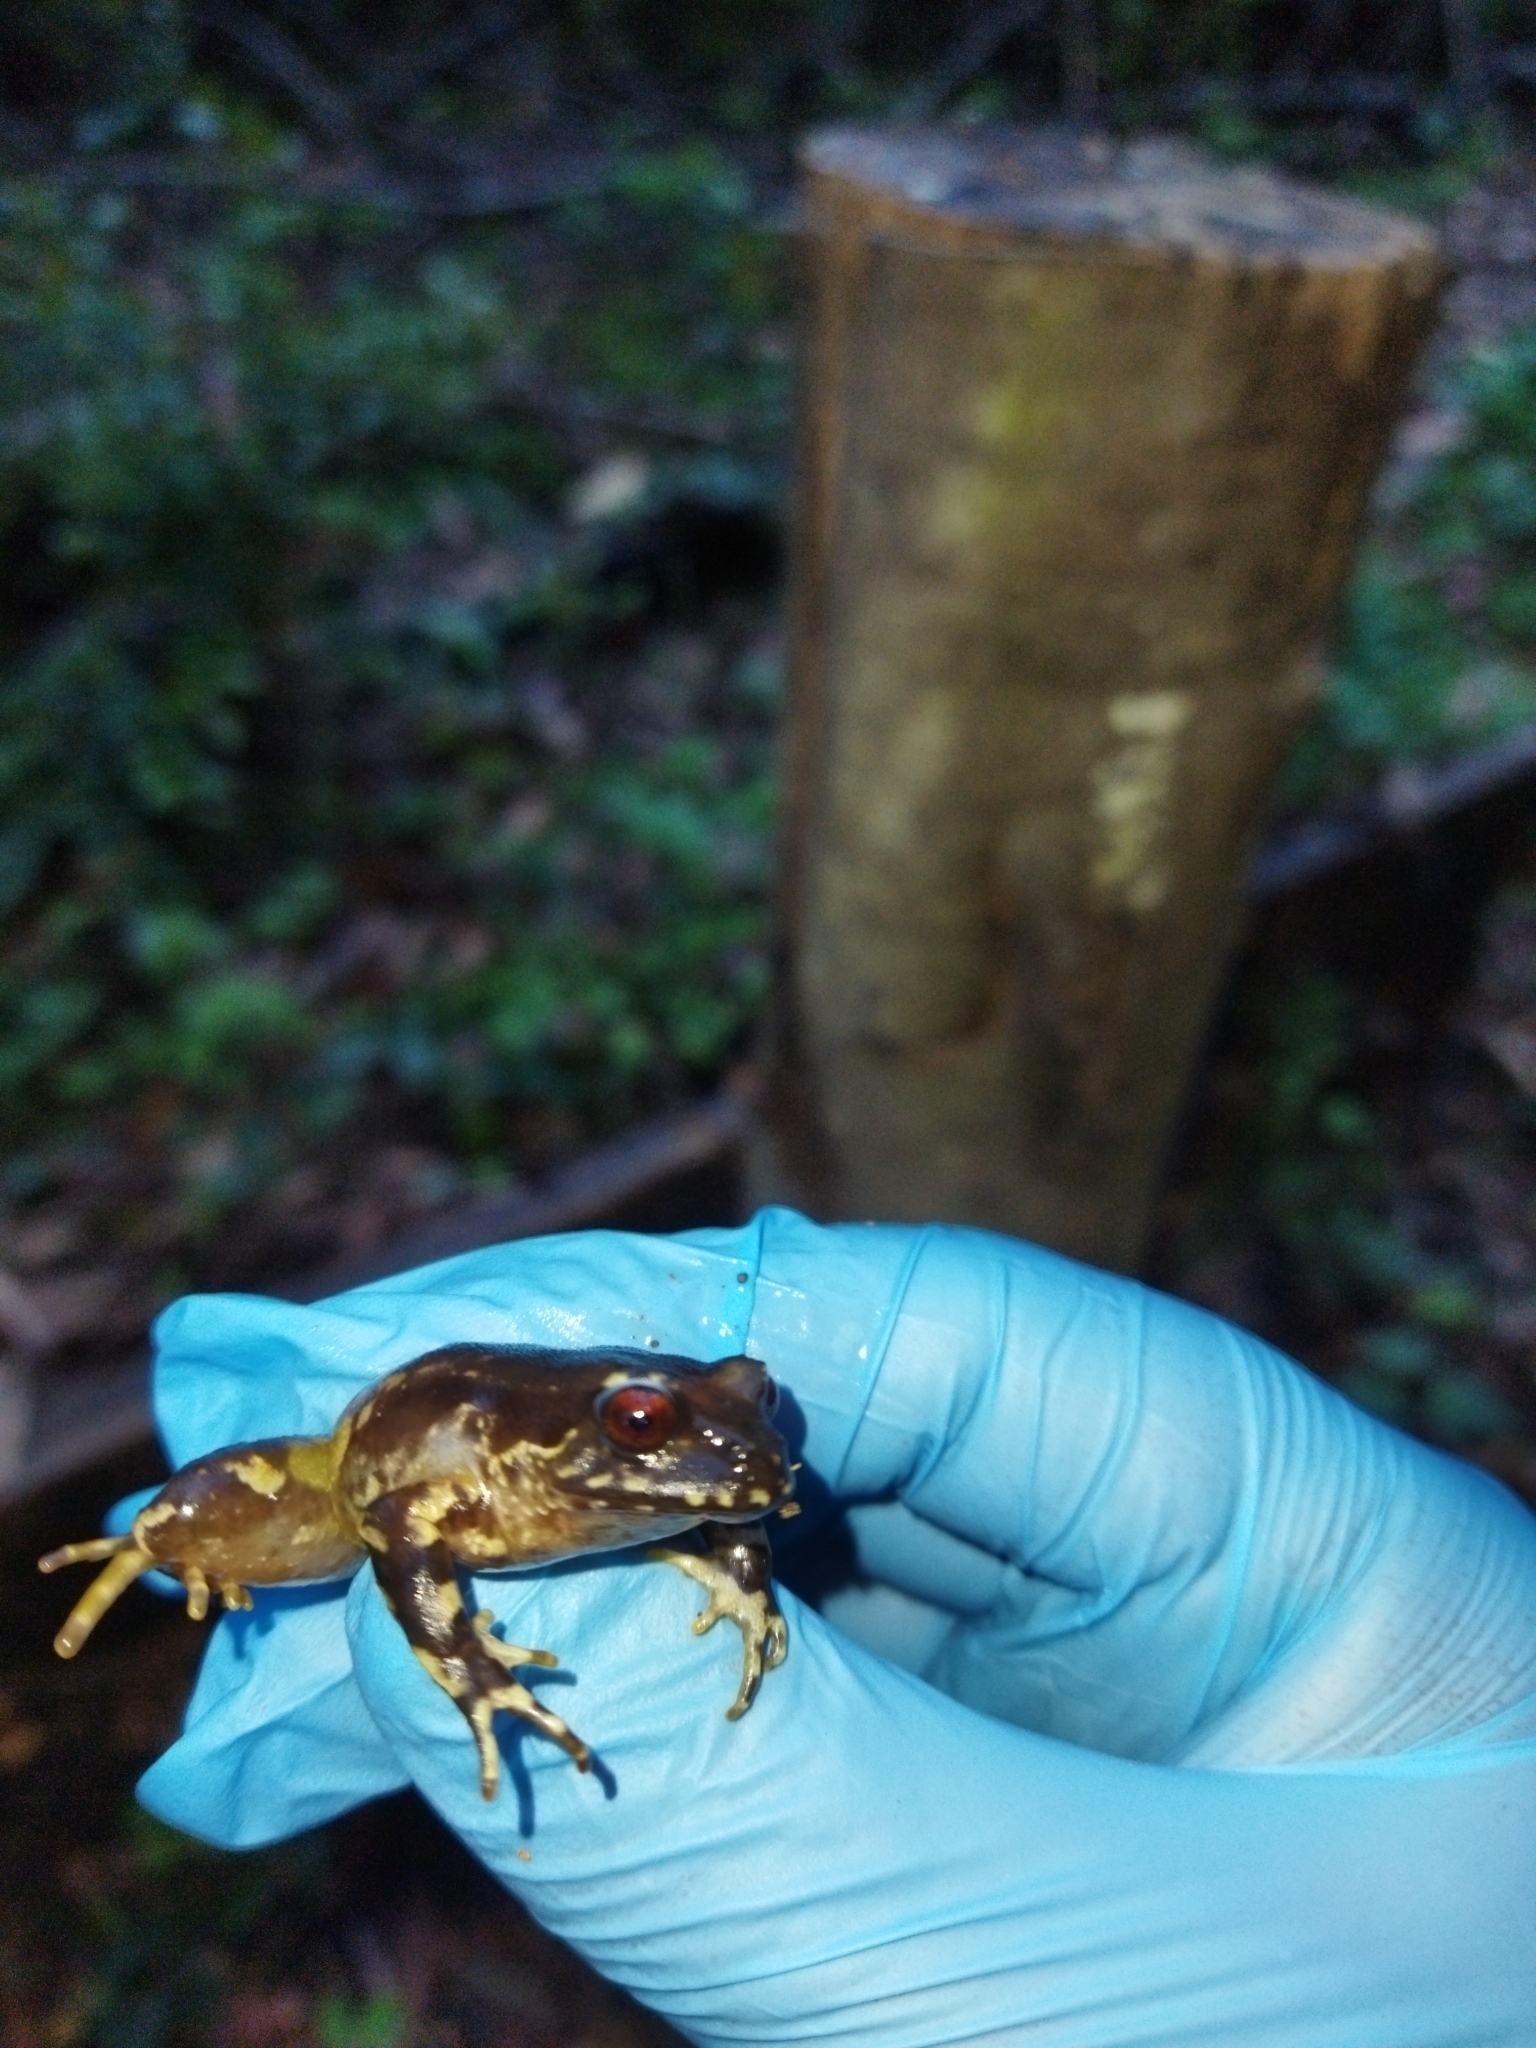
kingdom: Animalia
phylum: Chordata
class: Amphibia
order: Anura
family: Alsodidae
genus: Eupsophus
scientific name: Eupsophus roseus
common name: Rosy ground frog
